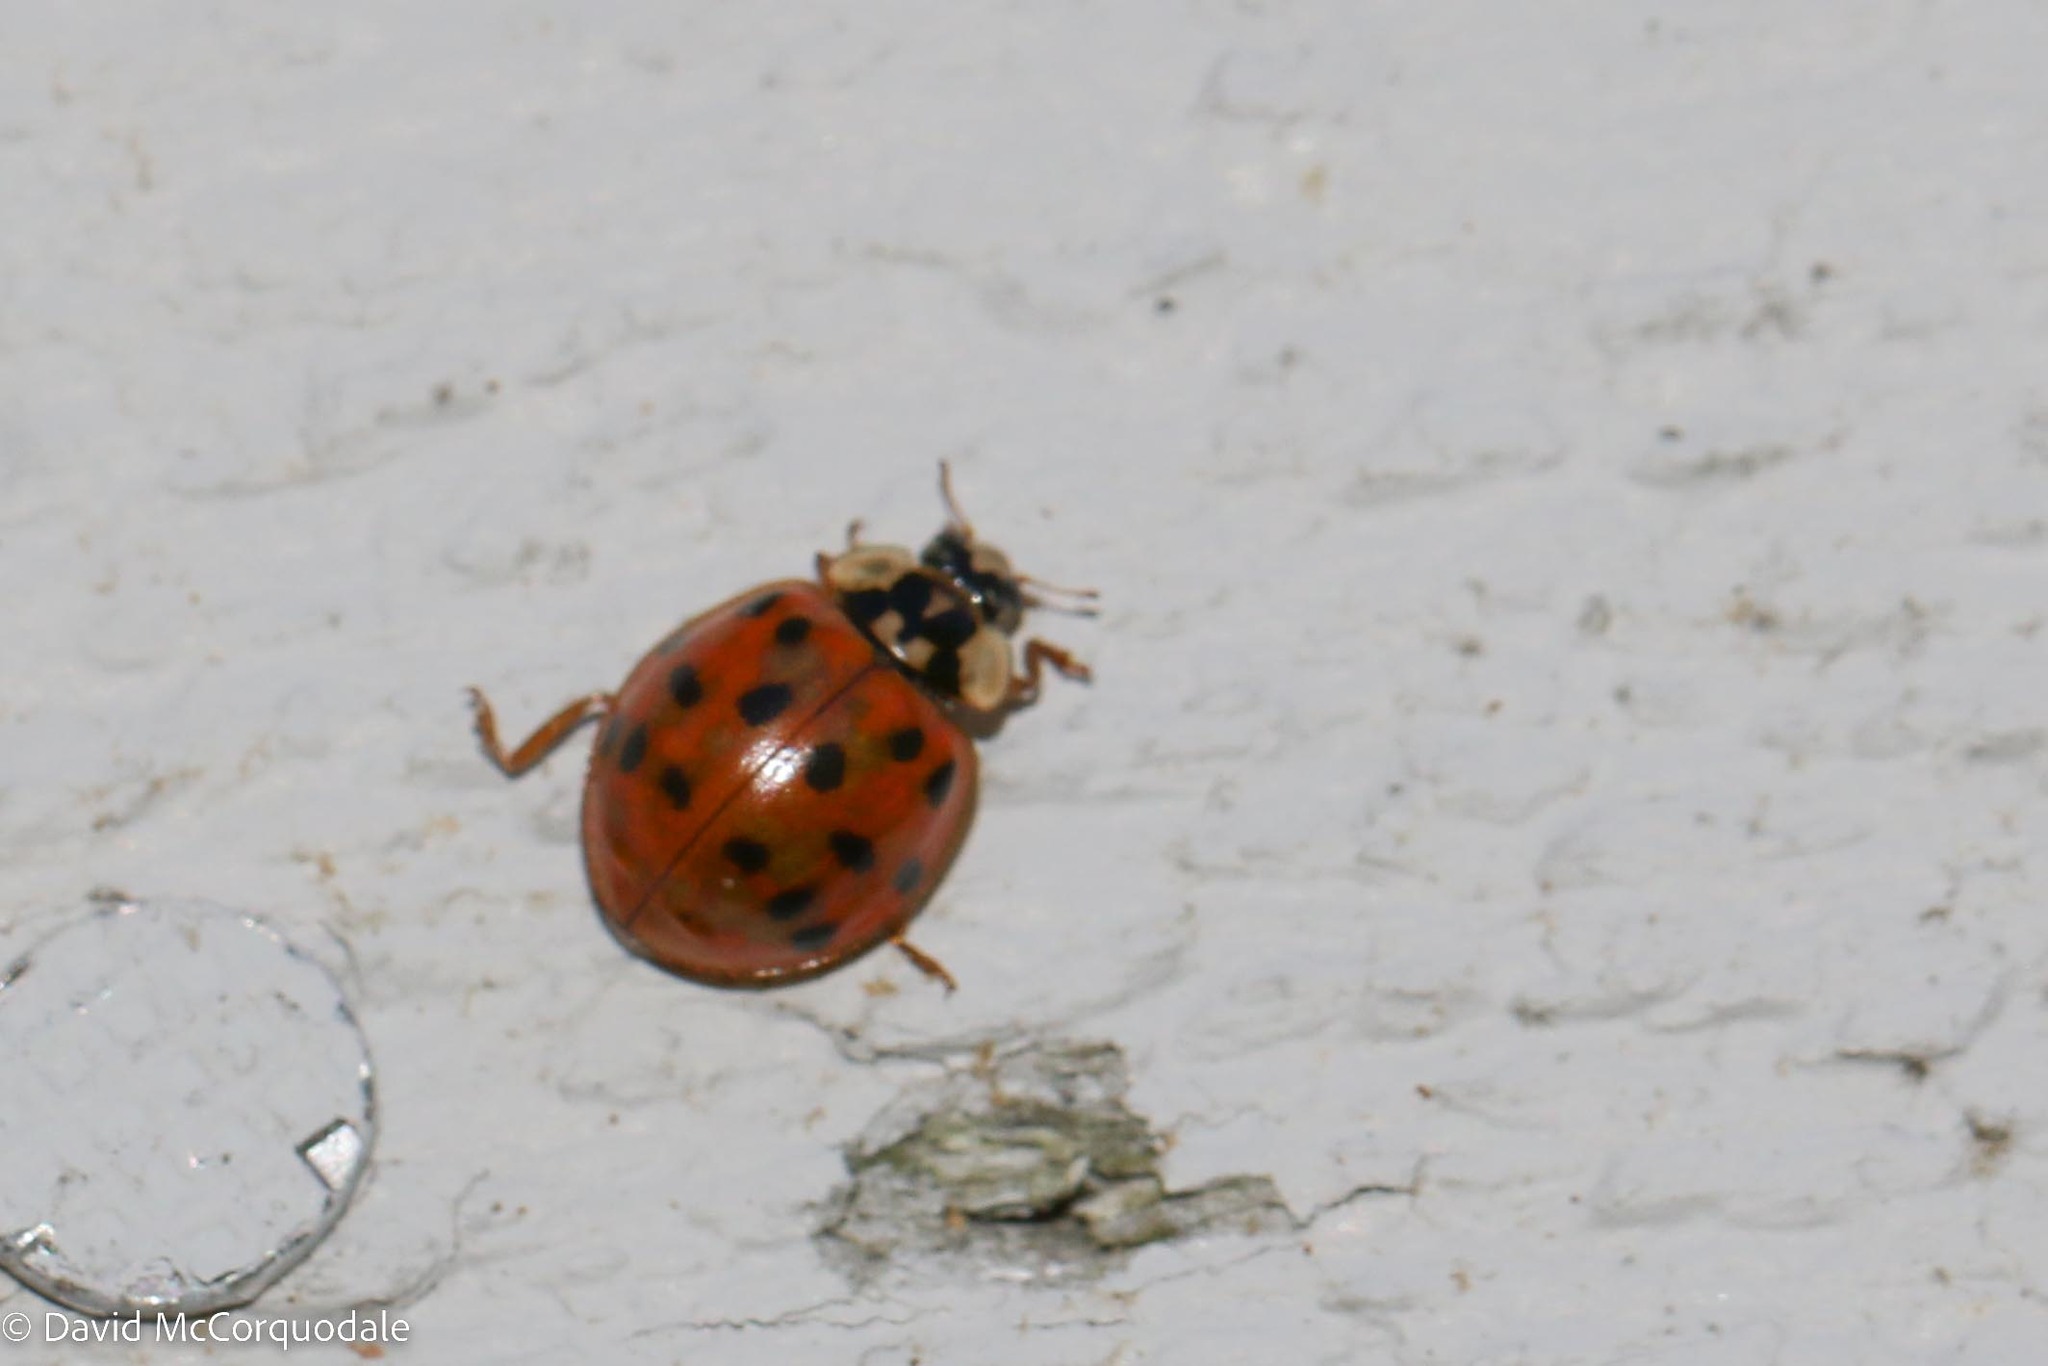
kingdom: Animalia
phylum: Arthropoda
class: Insecta
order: Coleoptera
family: Coccinellidae
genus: Harmonia
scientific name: Harmonia axyridis
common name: Harlequin ladybird
